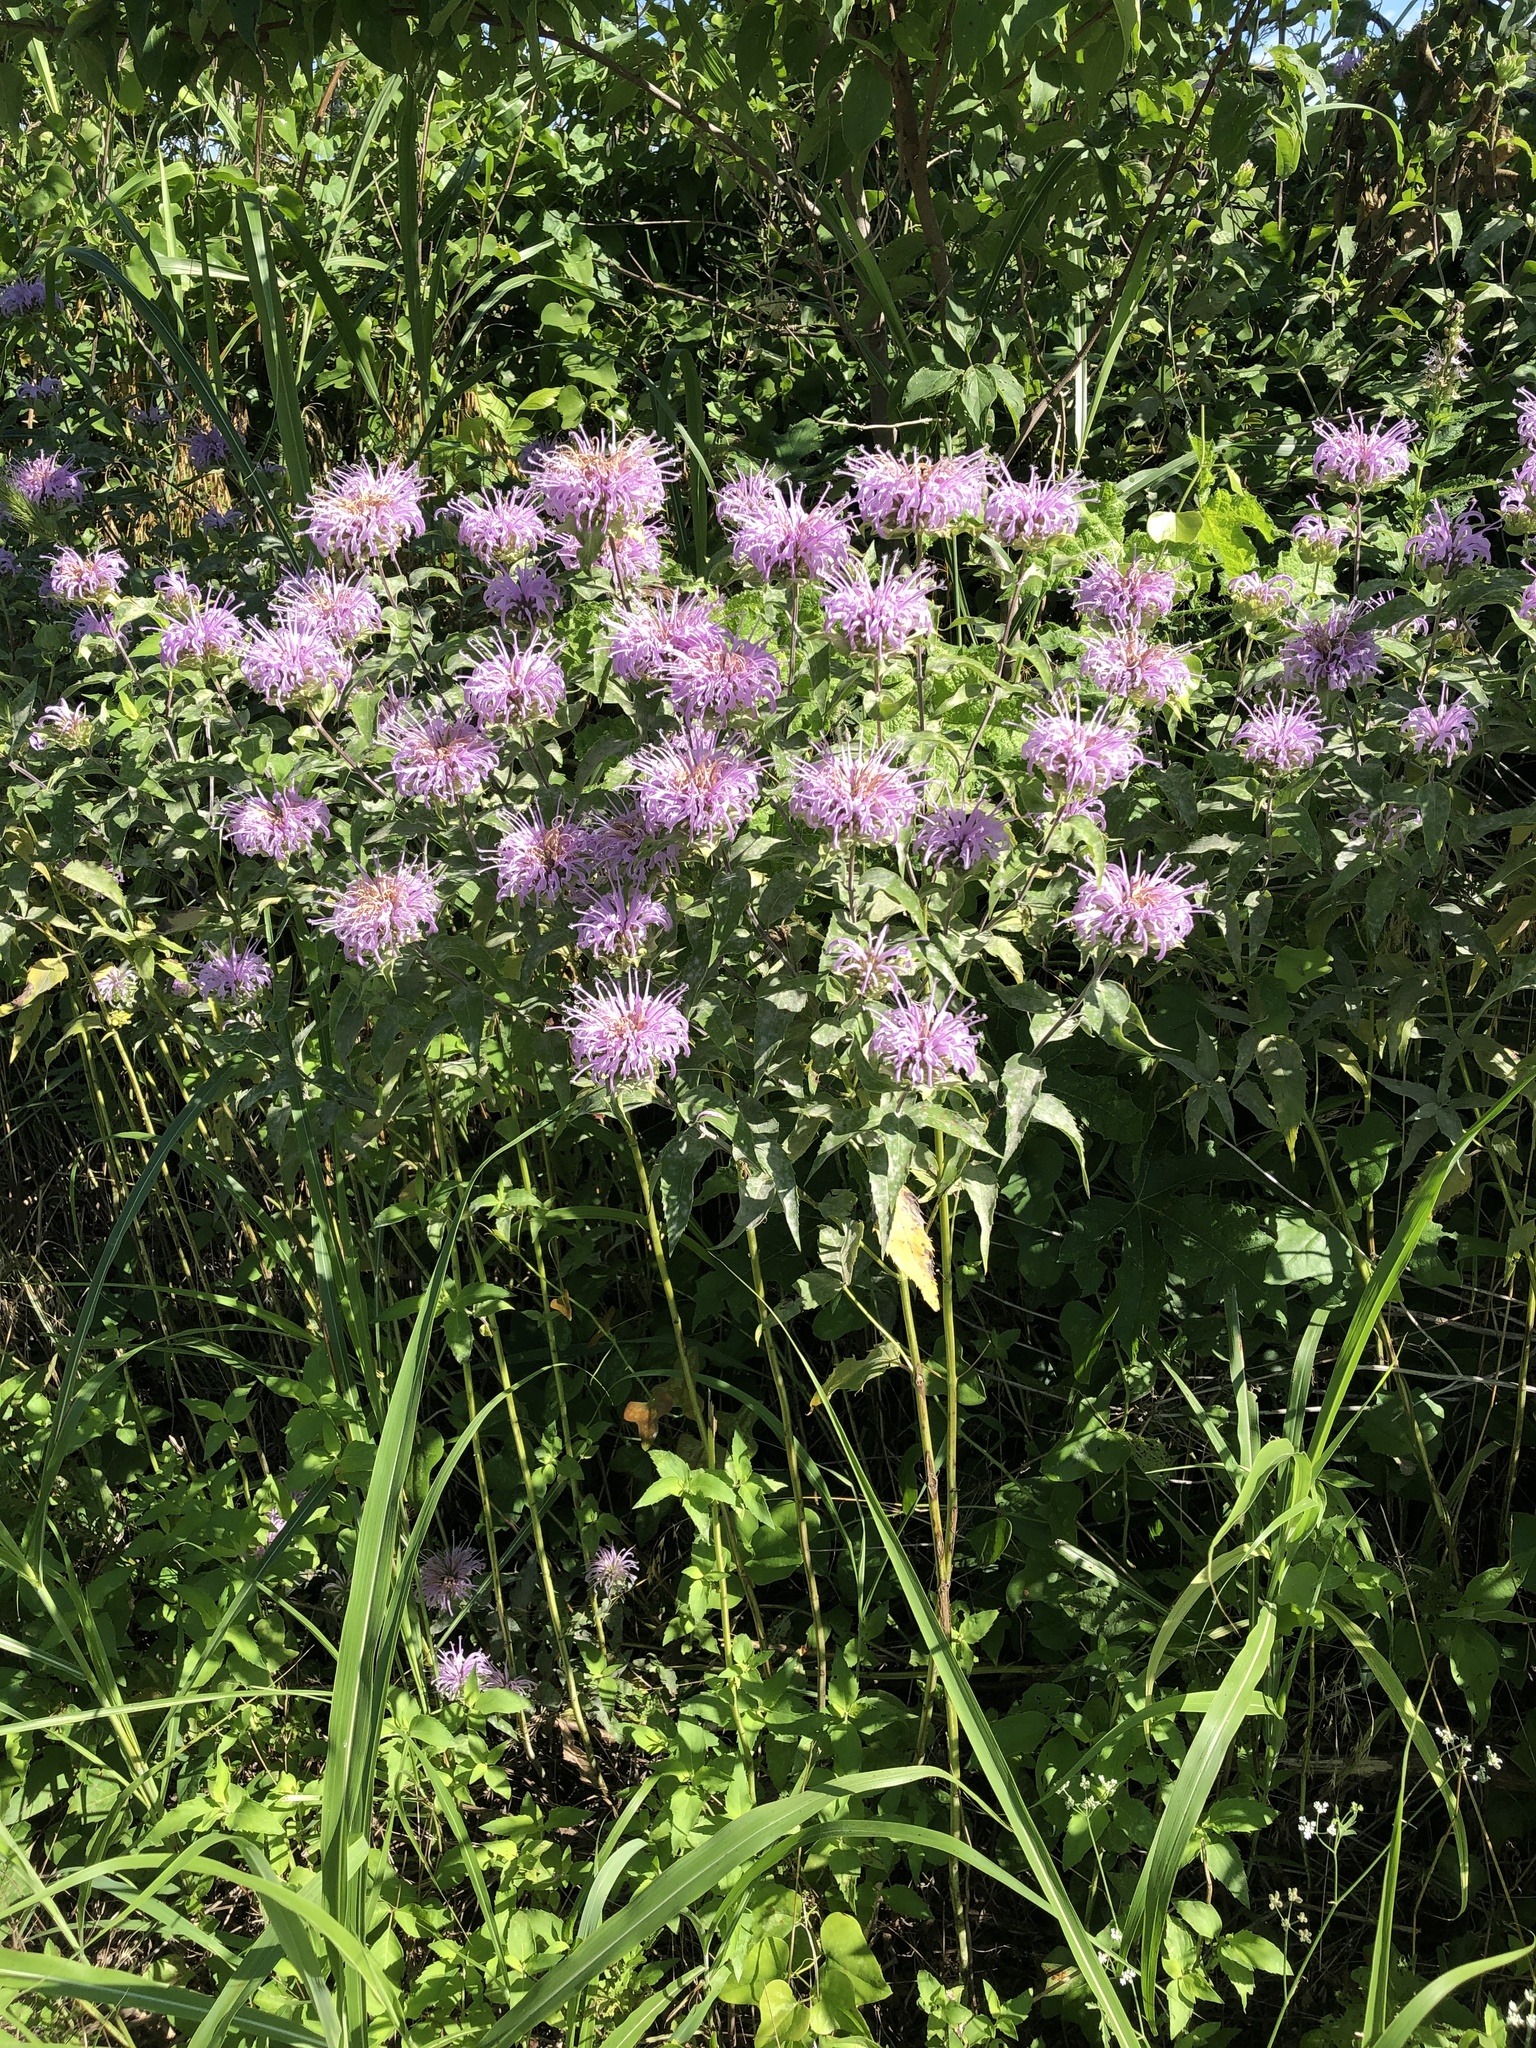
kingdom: Plantae
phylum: Tracheophyta
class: Magnoliopsida
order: Lamiales
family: Lamiaceae
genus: Monarda
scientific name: Monarda fistulosa
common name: Purple beebalm
